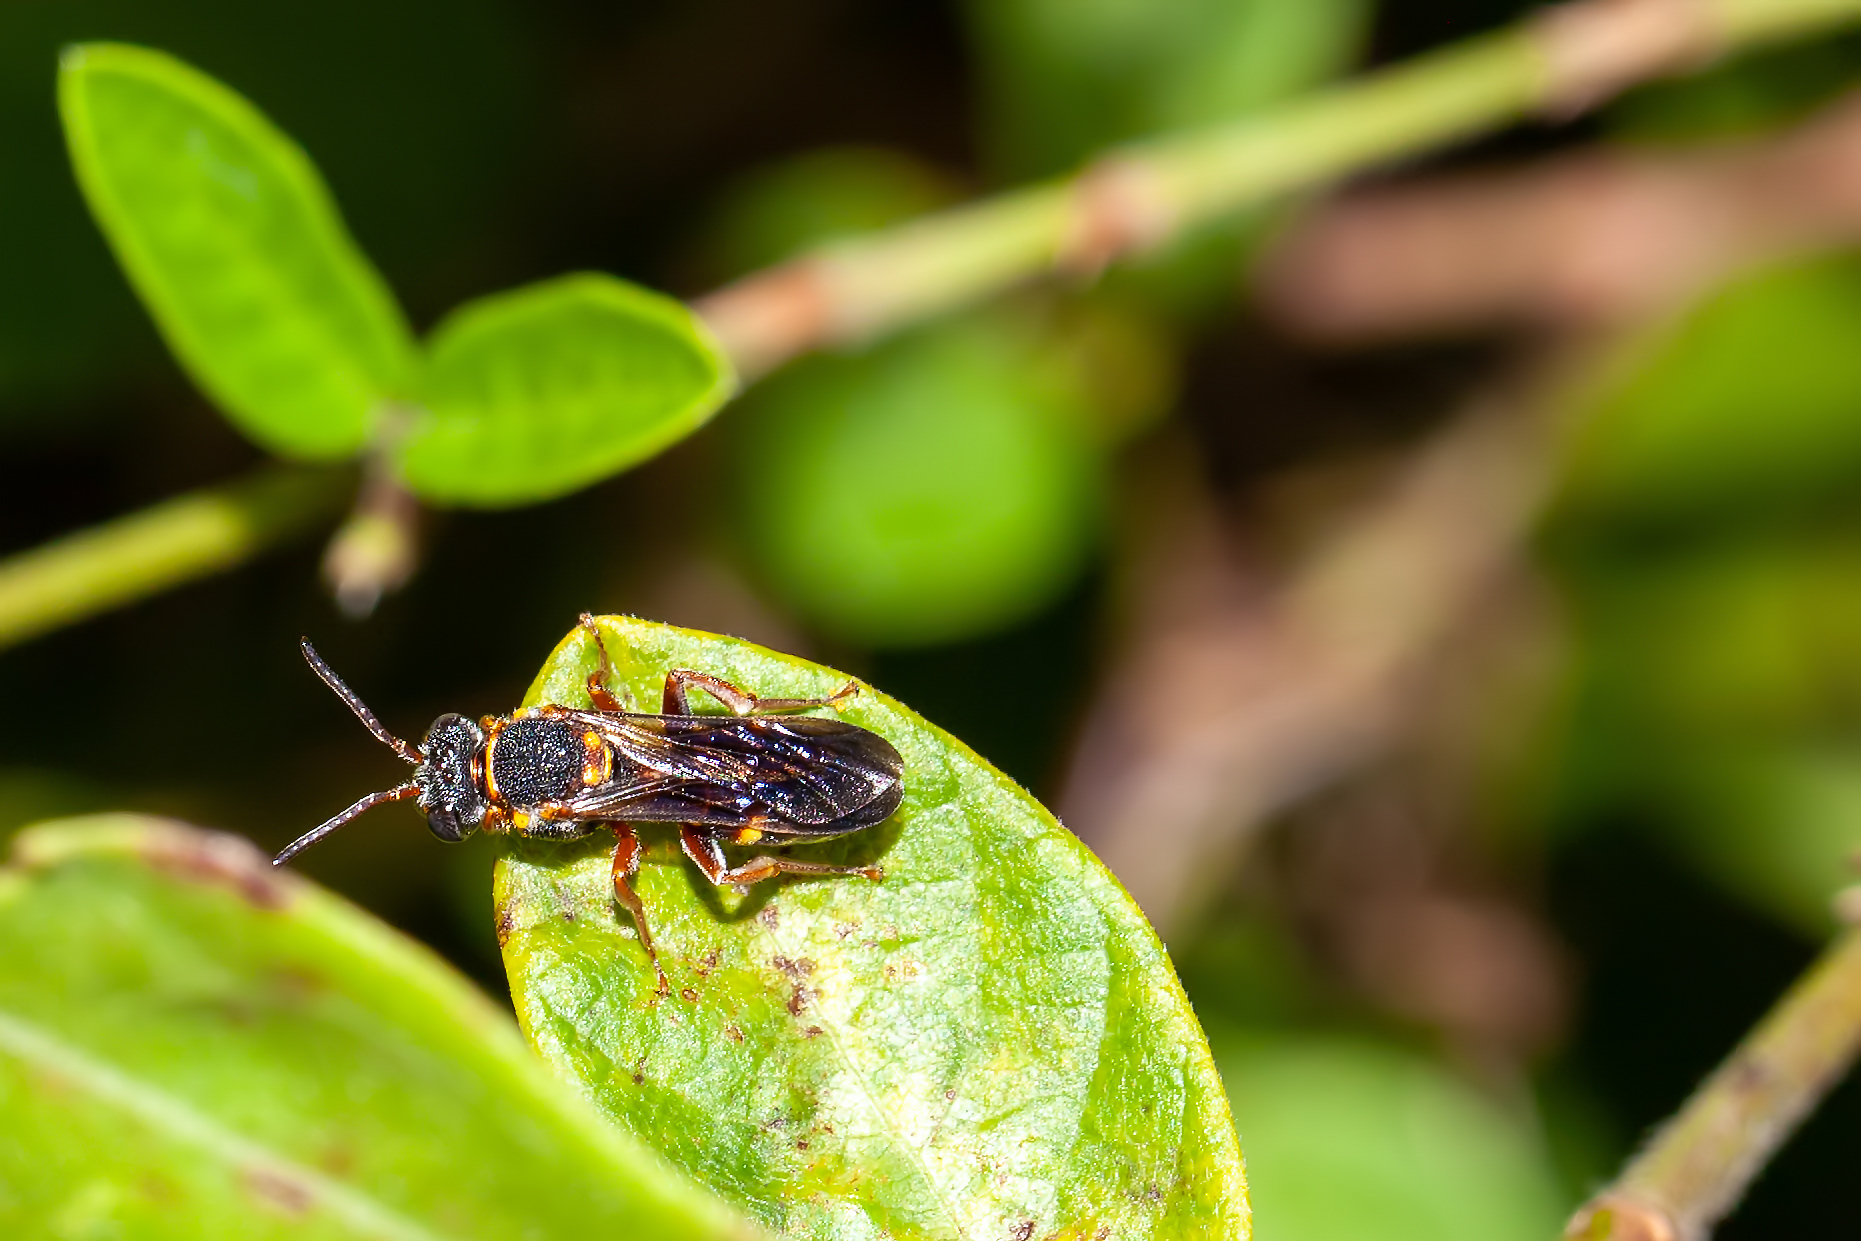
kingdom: Animalia
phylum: Arthropoda
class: Insecta
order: Hymenoptera
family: Apidae
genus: Nomada
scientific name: Nomada fervida
